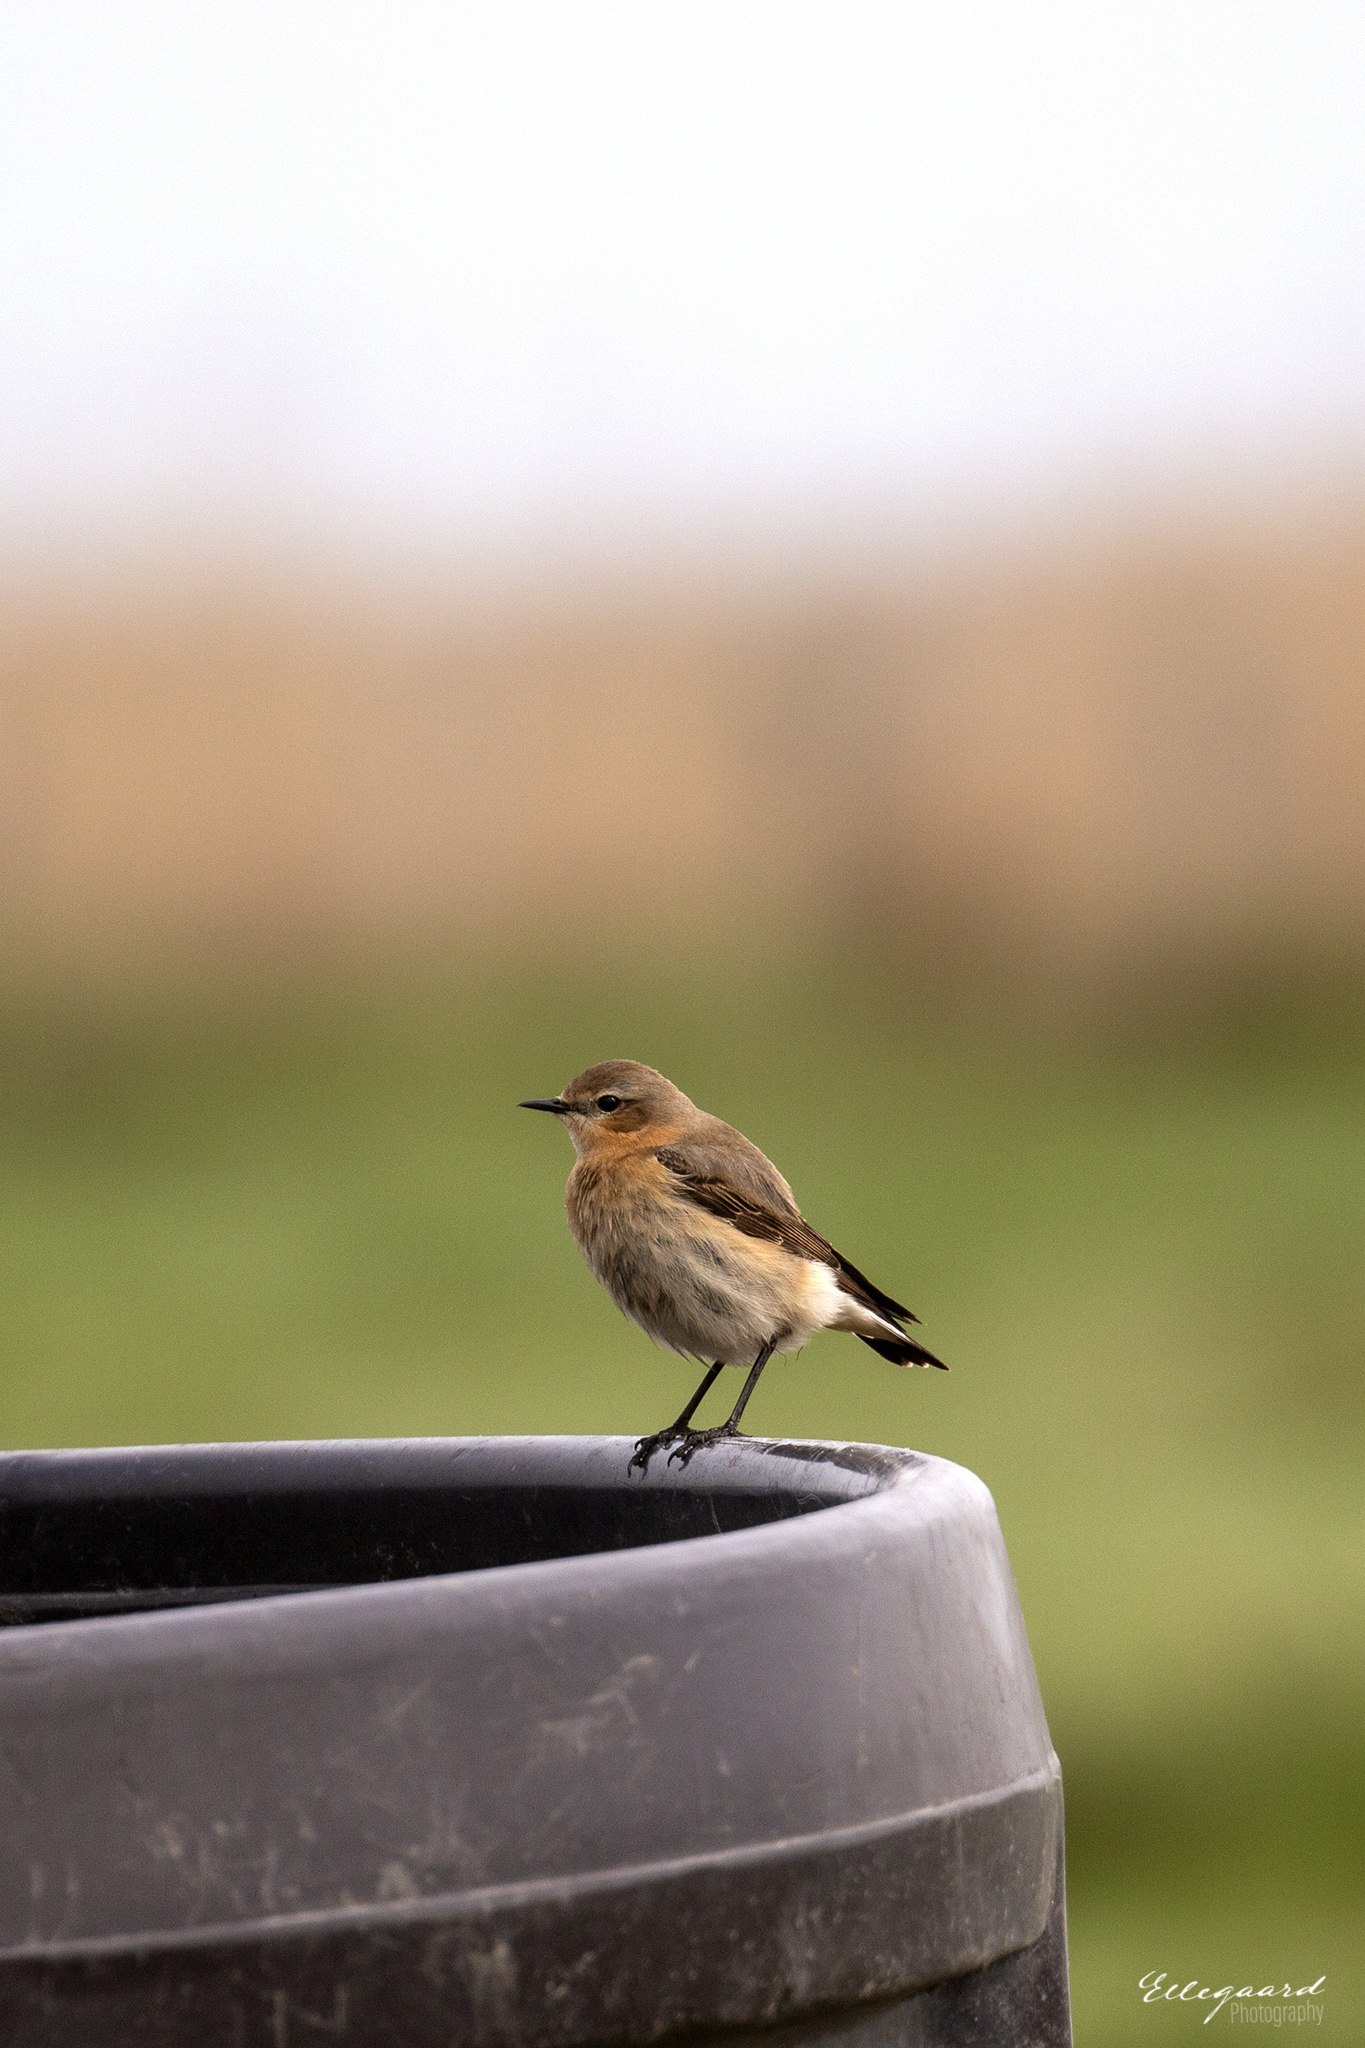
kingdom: Animalia
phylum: Chordata
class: Aves
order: Passeriformes
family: Muscicapidae
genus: Oenanthe
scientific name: Oenanthe oenanthe
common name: Northern wheatear
